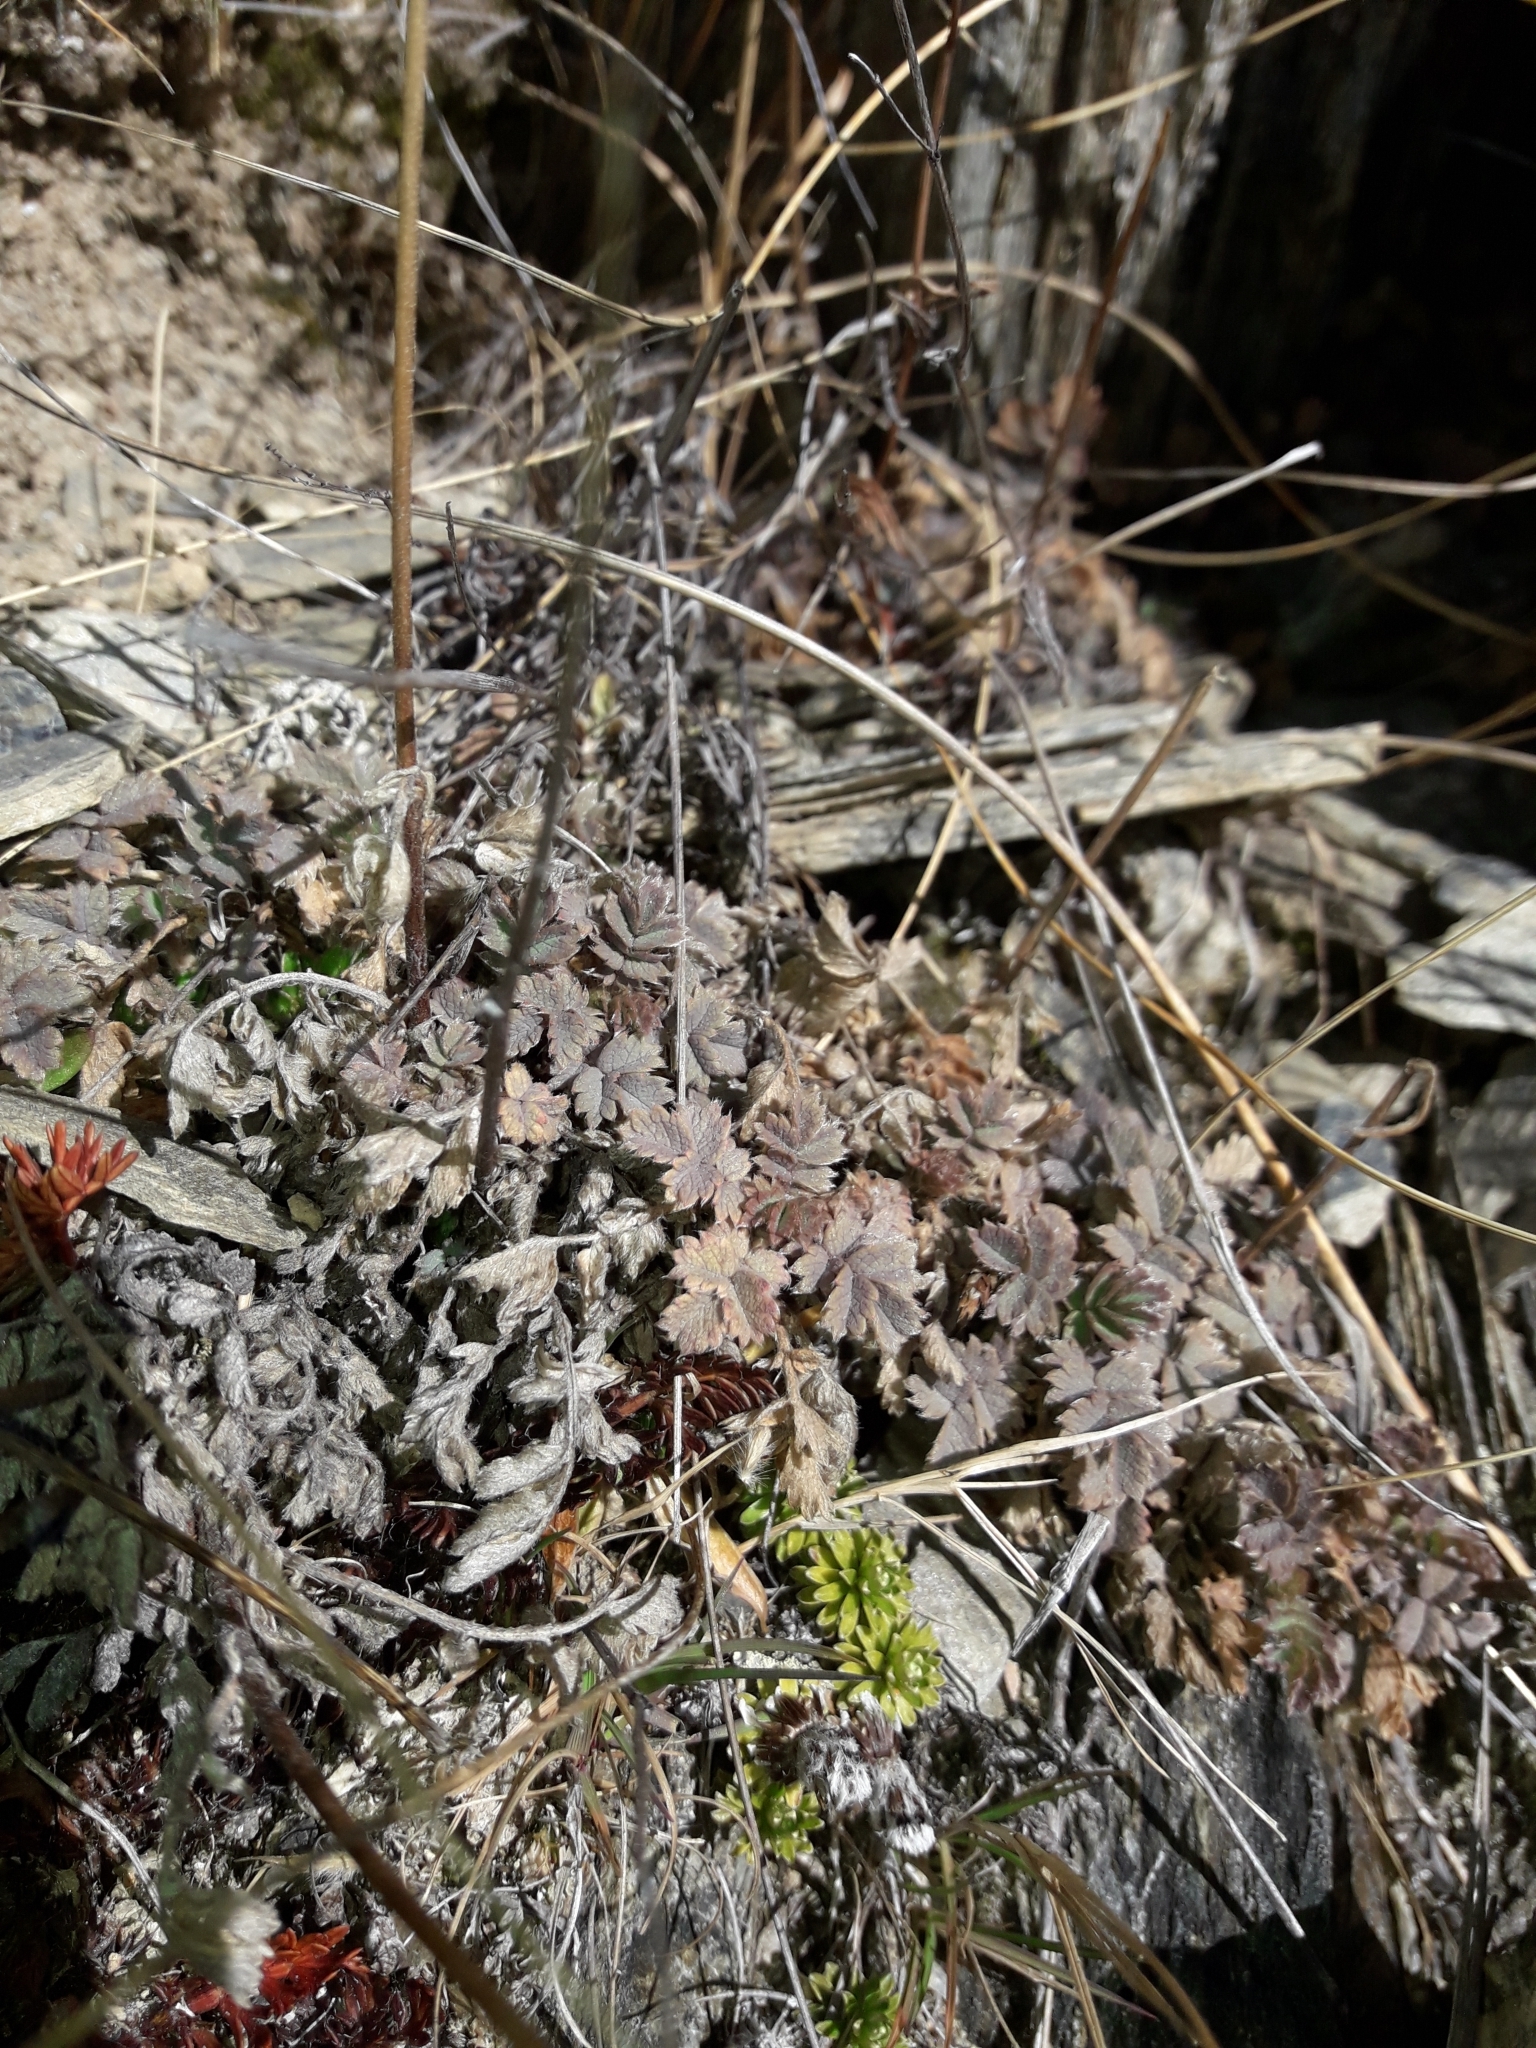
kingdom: Plantae
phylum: Tracheophyta
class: Magnoliopsida
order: Rosales
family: Rosaceae
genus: Acaena
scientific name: Acaena caesiiglauca
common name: Glaucous pirri-pirri-bur
